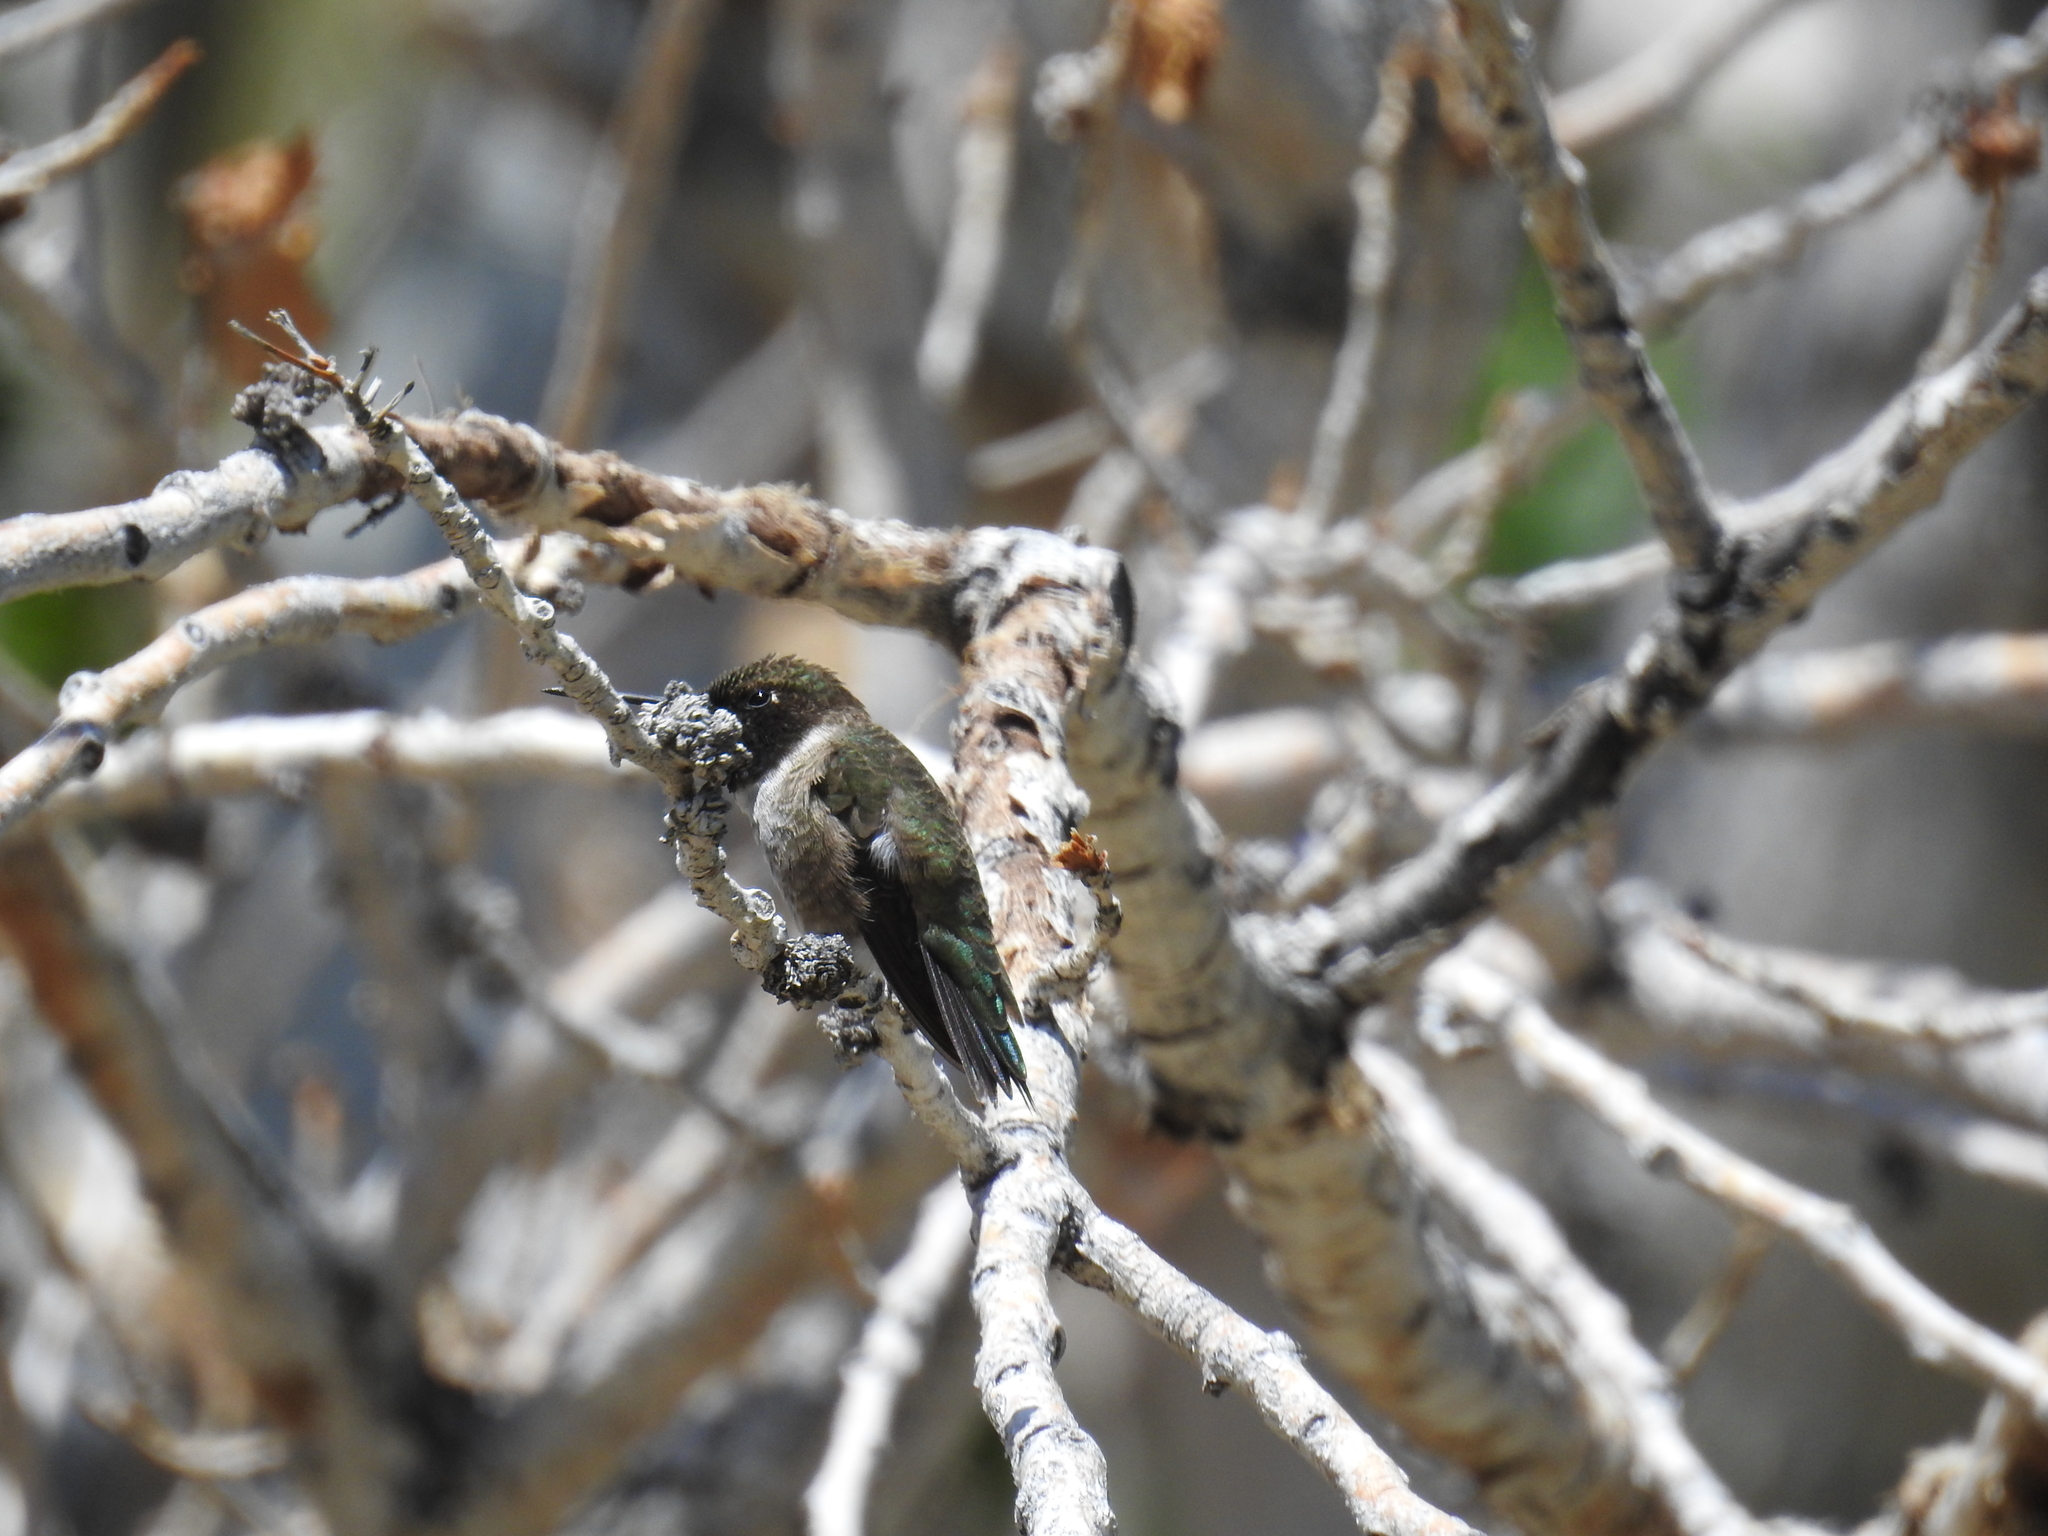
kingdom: Animalia
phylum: Chordata
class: Aves
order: Apodiformes
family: Trochilidae
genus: Archilochus
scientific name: Archilochus alexandri
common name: Black-chinned hummingbird
